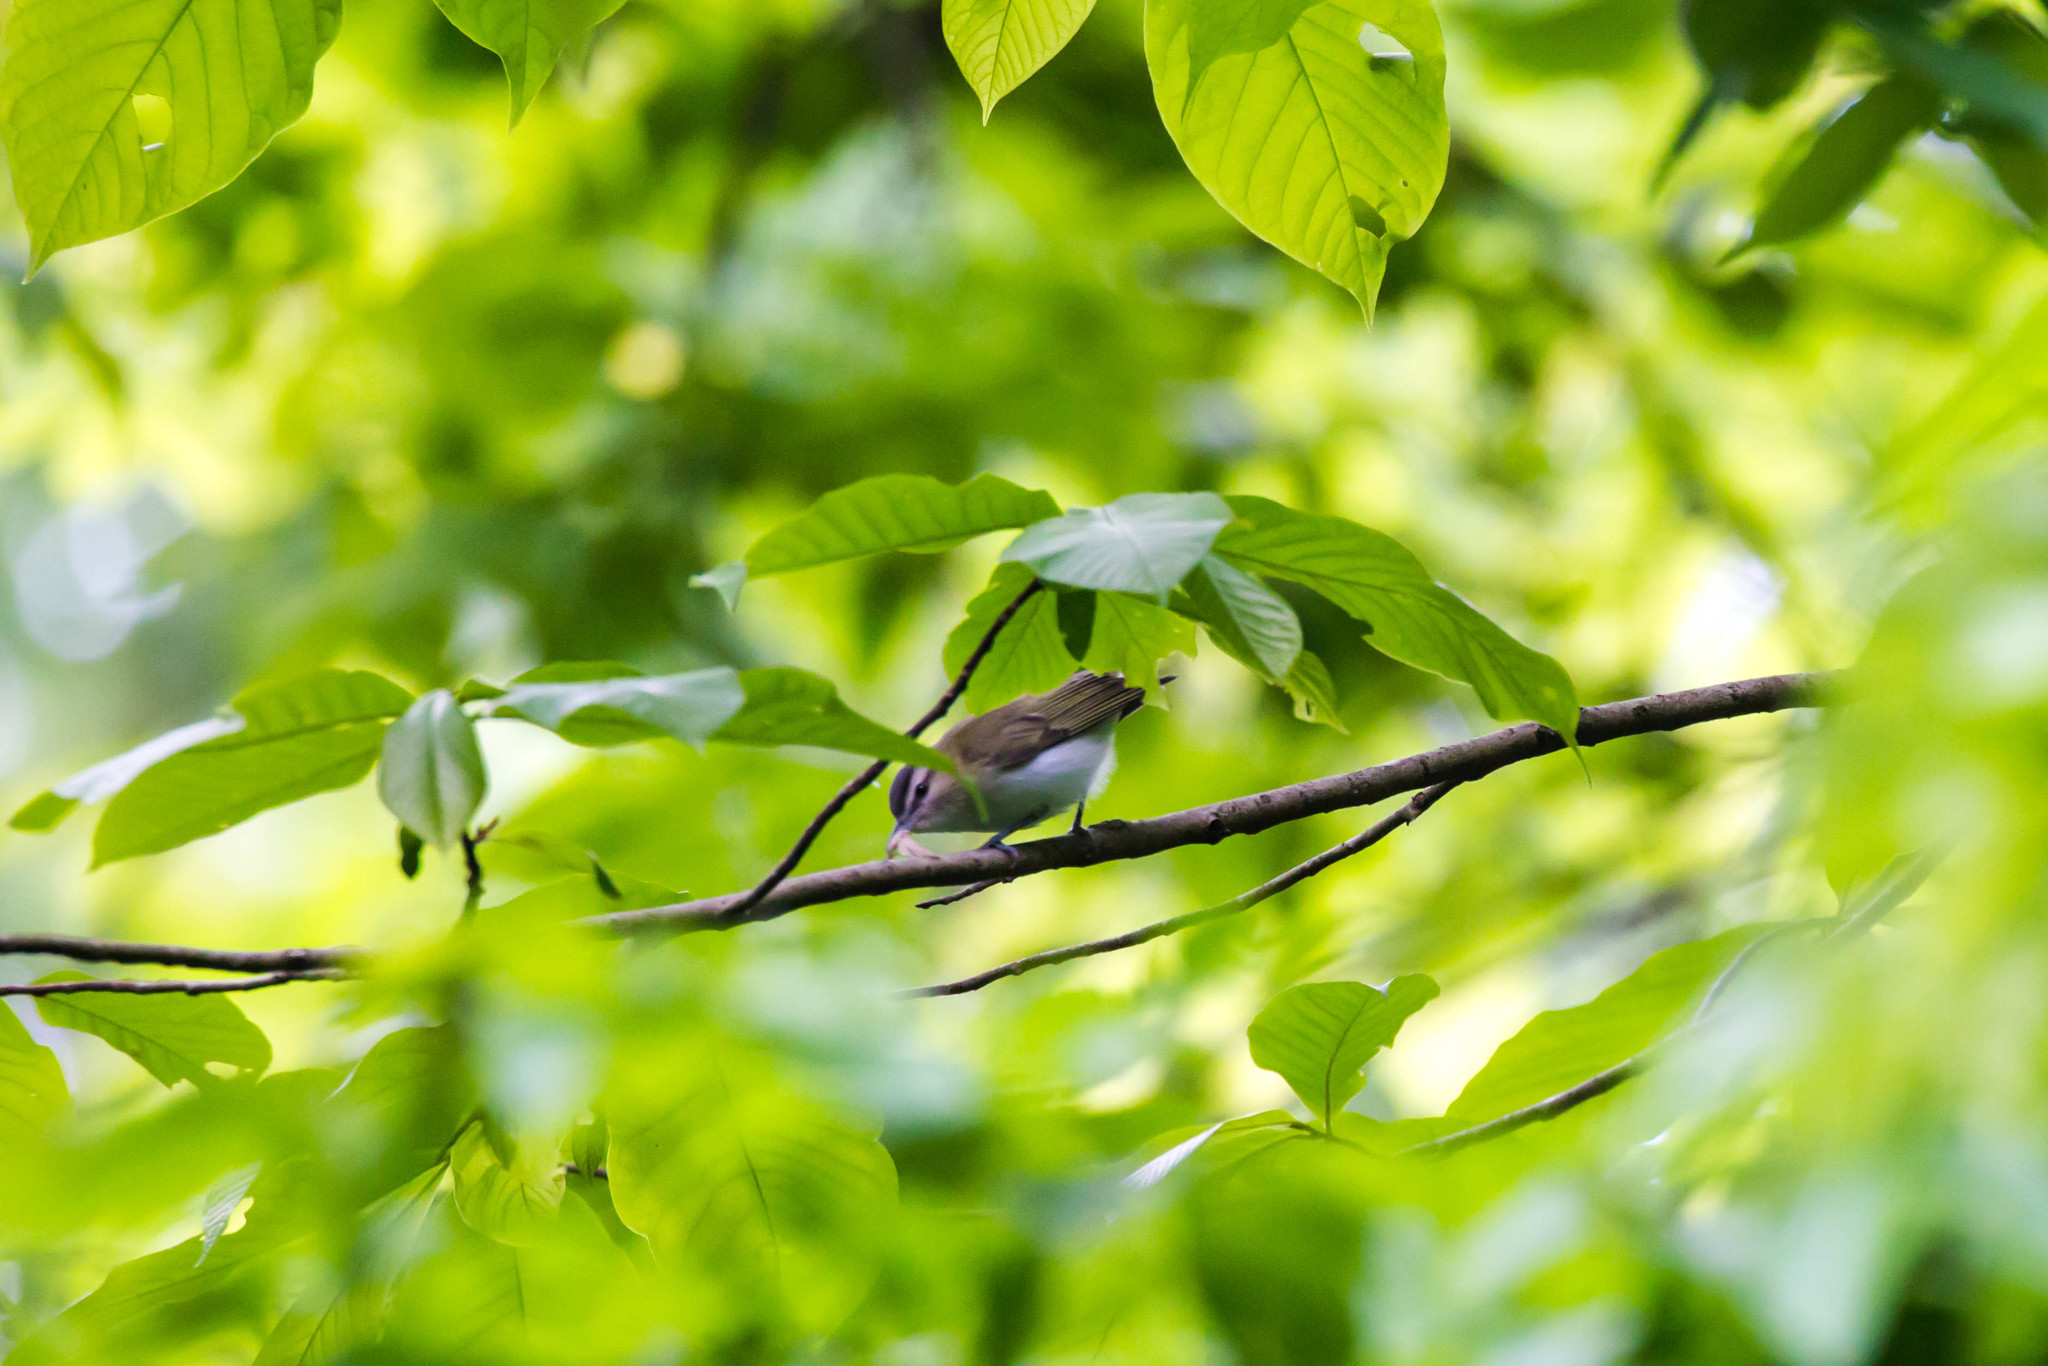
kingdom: Animalia
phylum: Chordata
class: Aves
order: Passeriformes
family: Vireonidae
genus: Vireo
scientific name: Vireo olivaceus
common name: Red-eyed vireo
